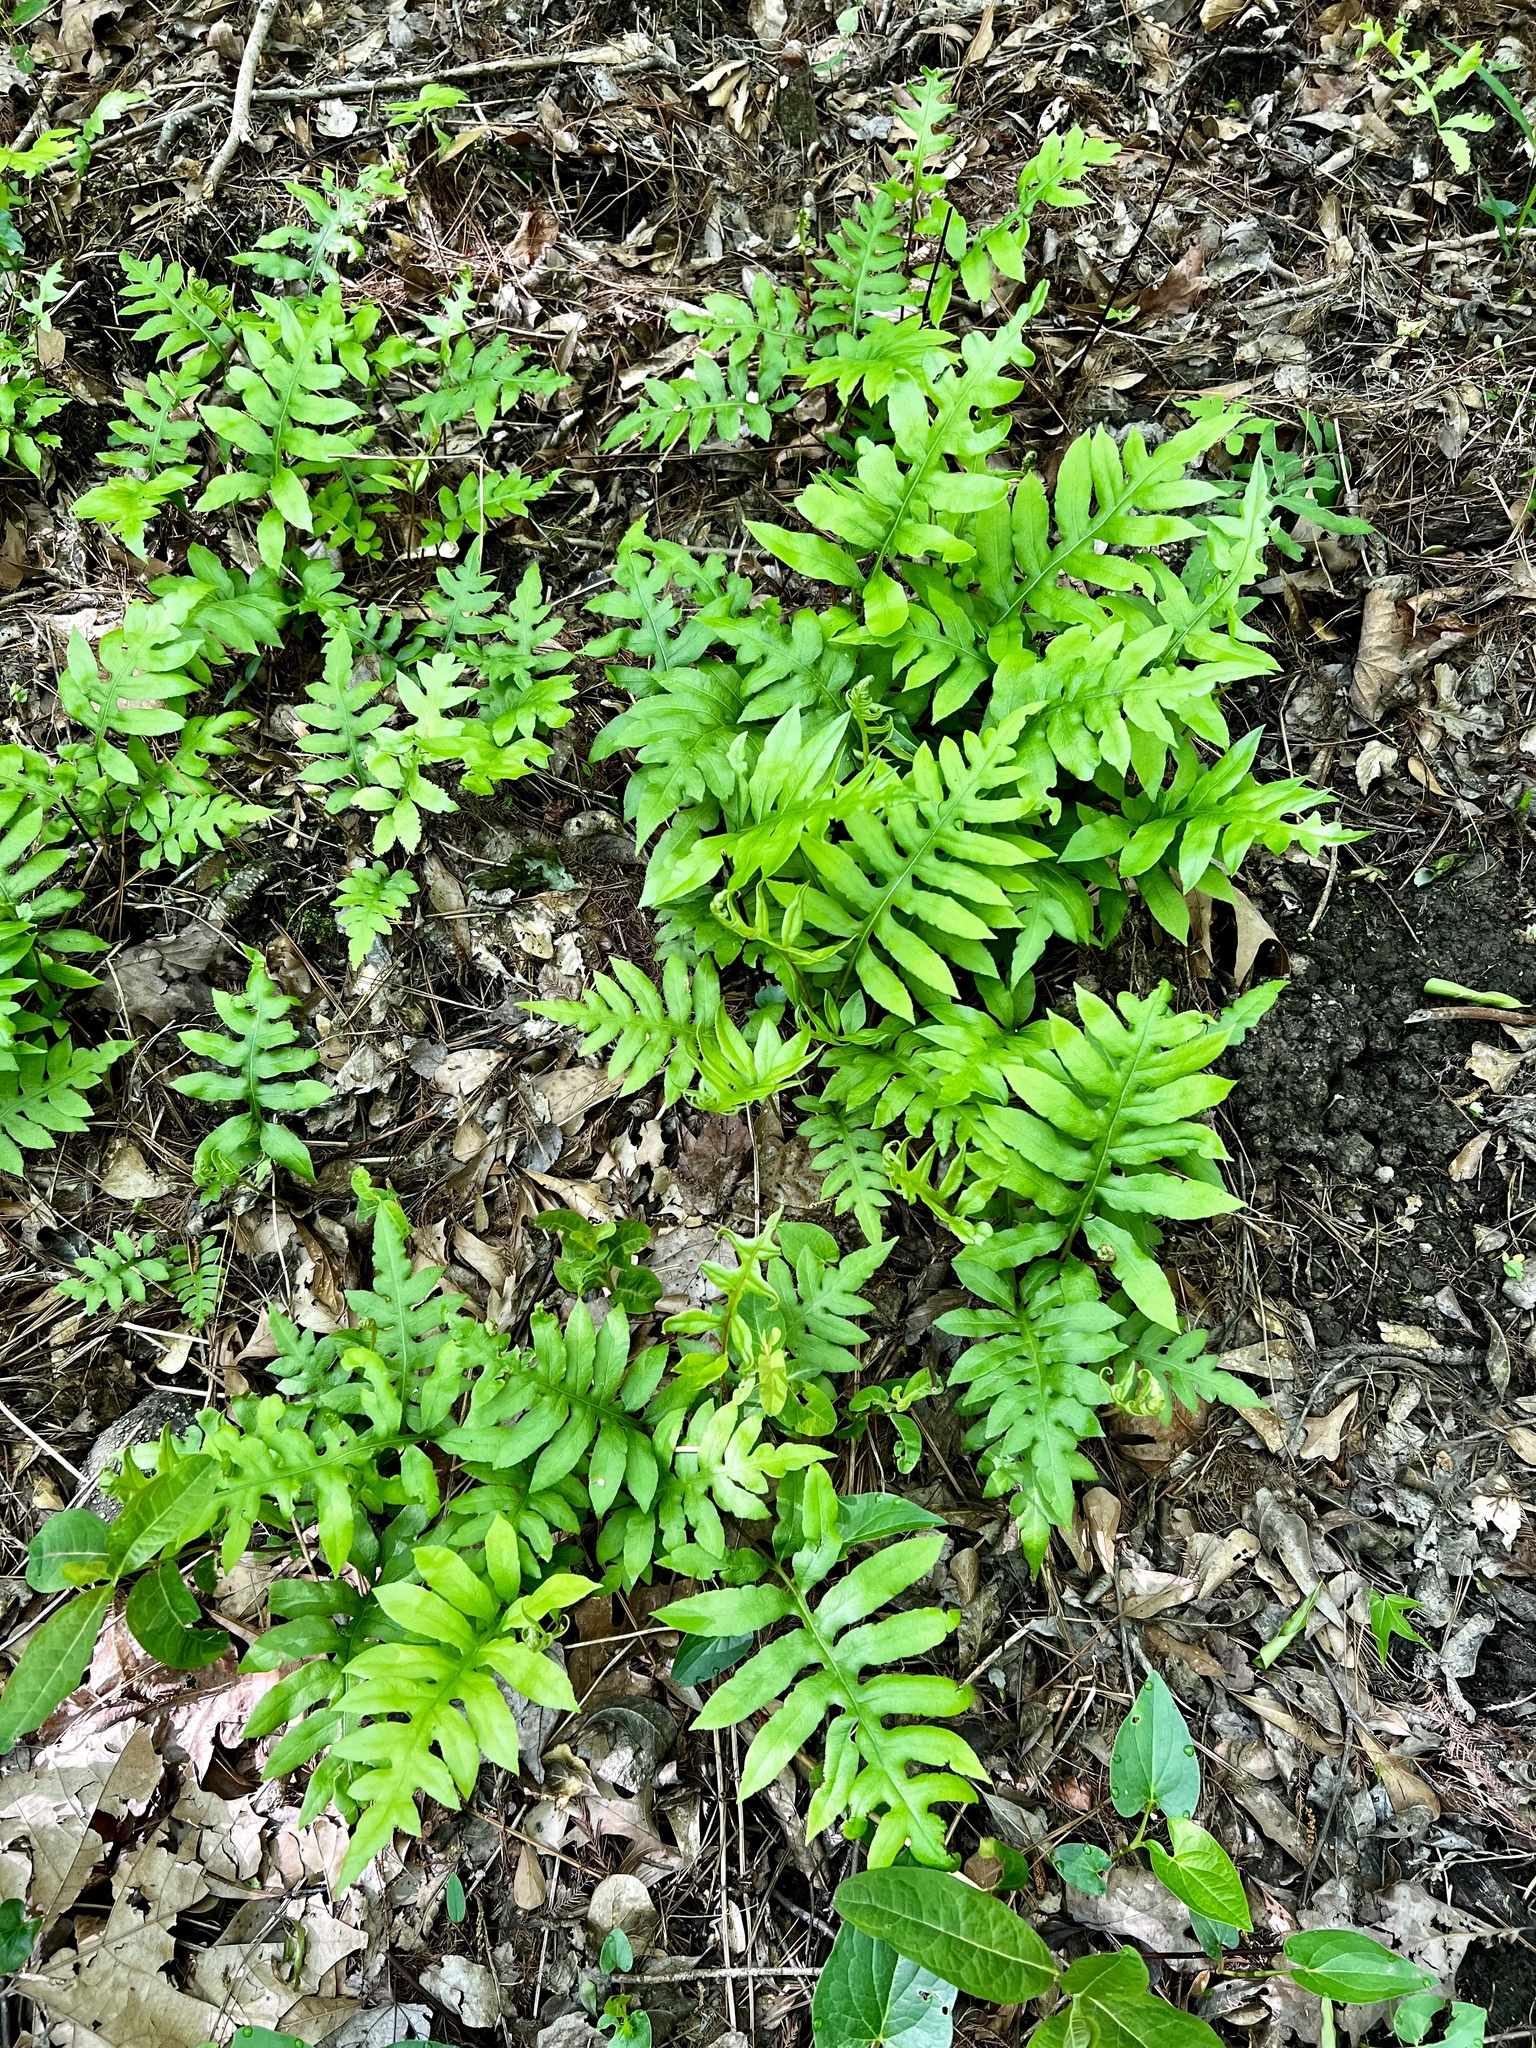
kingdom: Plantae
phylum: Tracheophyta
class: Polypodiopsida
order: Polypodiales
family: Blechnaceae
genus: Lorinseria
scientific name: Lorinseria areolata
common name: Dwarf chain fern
